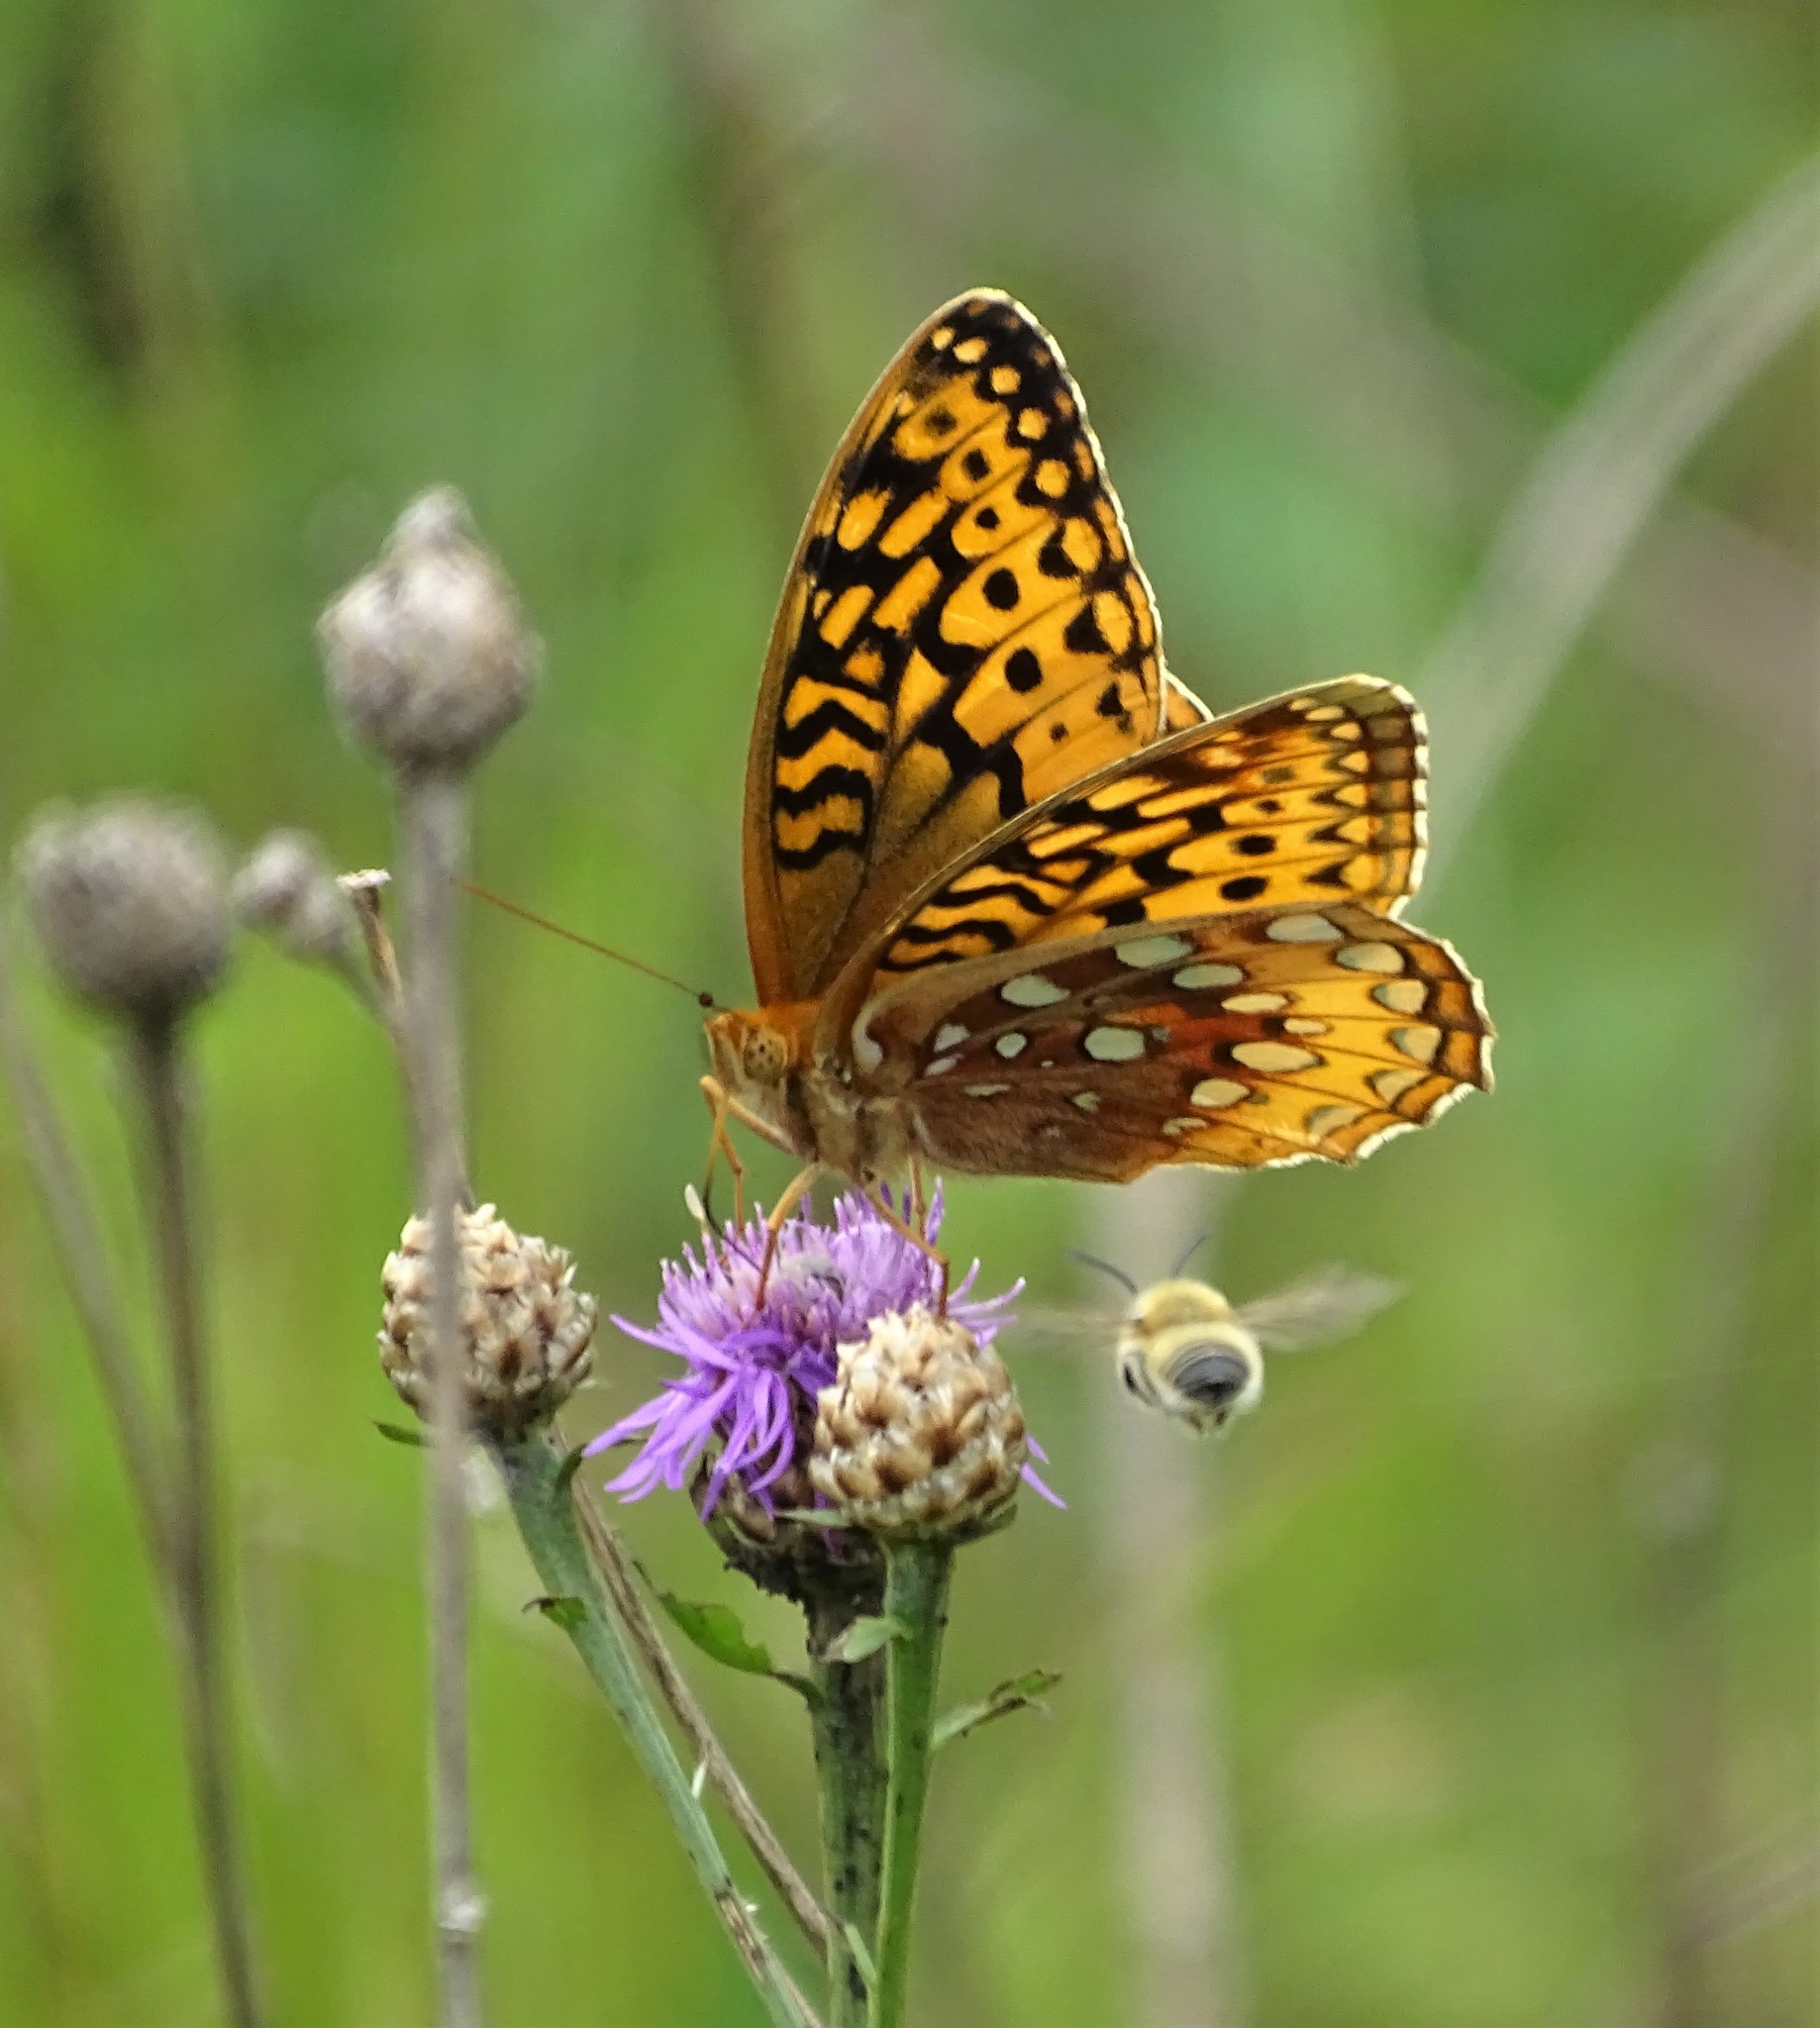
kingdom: Animalia
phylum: Arthropoda
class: Insecta
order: Lepidoptera
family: Nymphalidae
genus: Speyeria
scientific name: Speyeria cybele
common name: Great spangled fritillary
